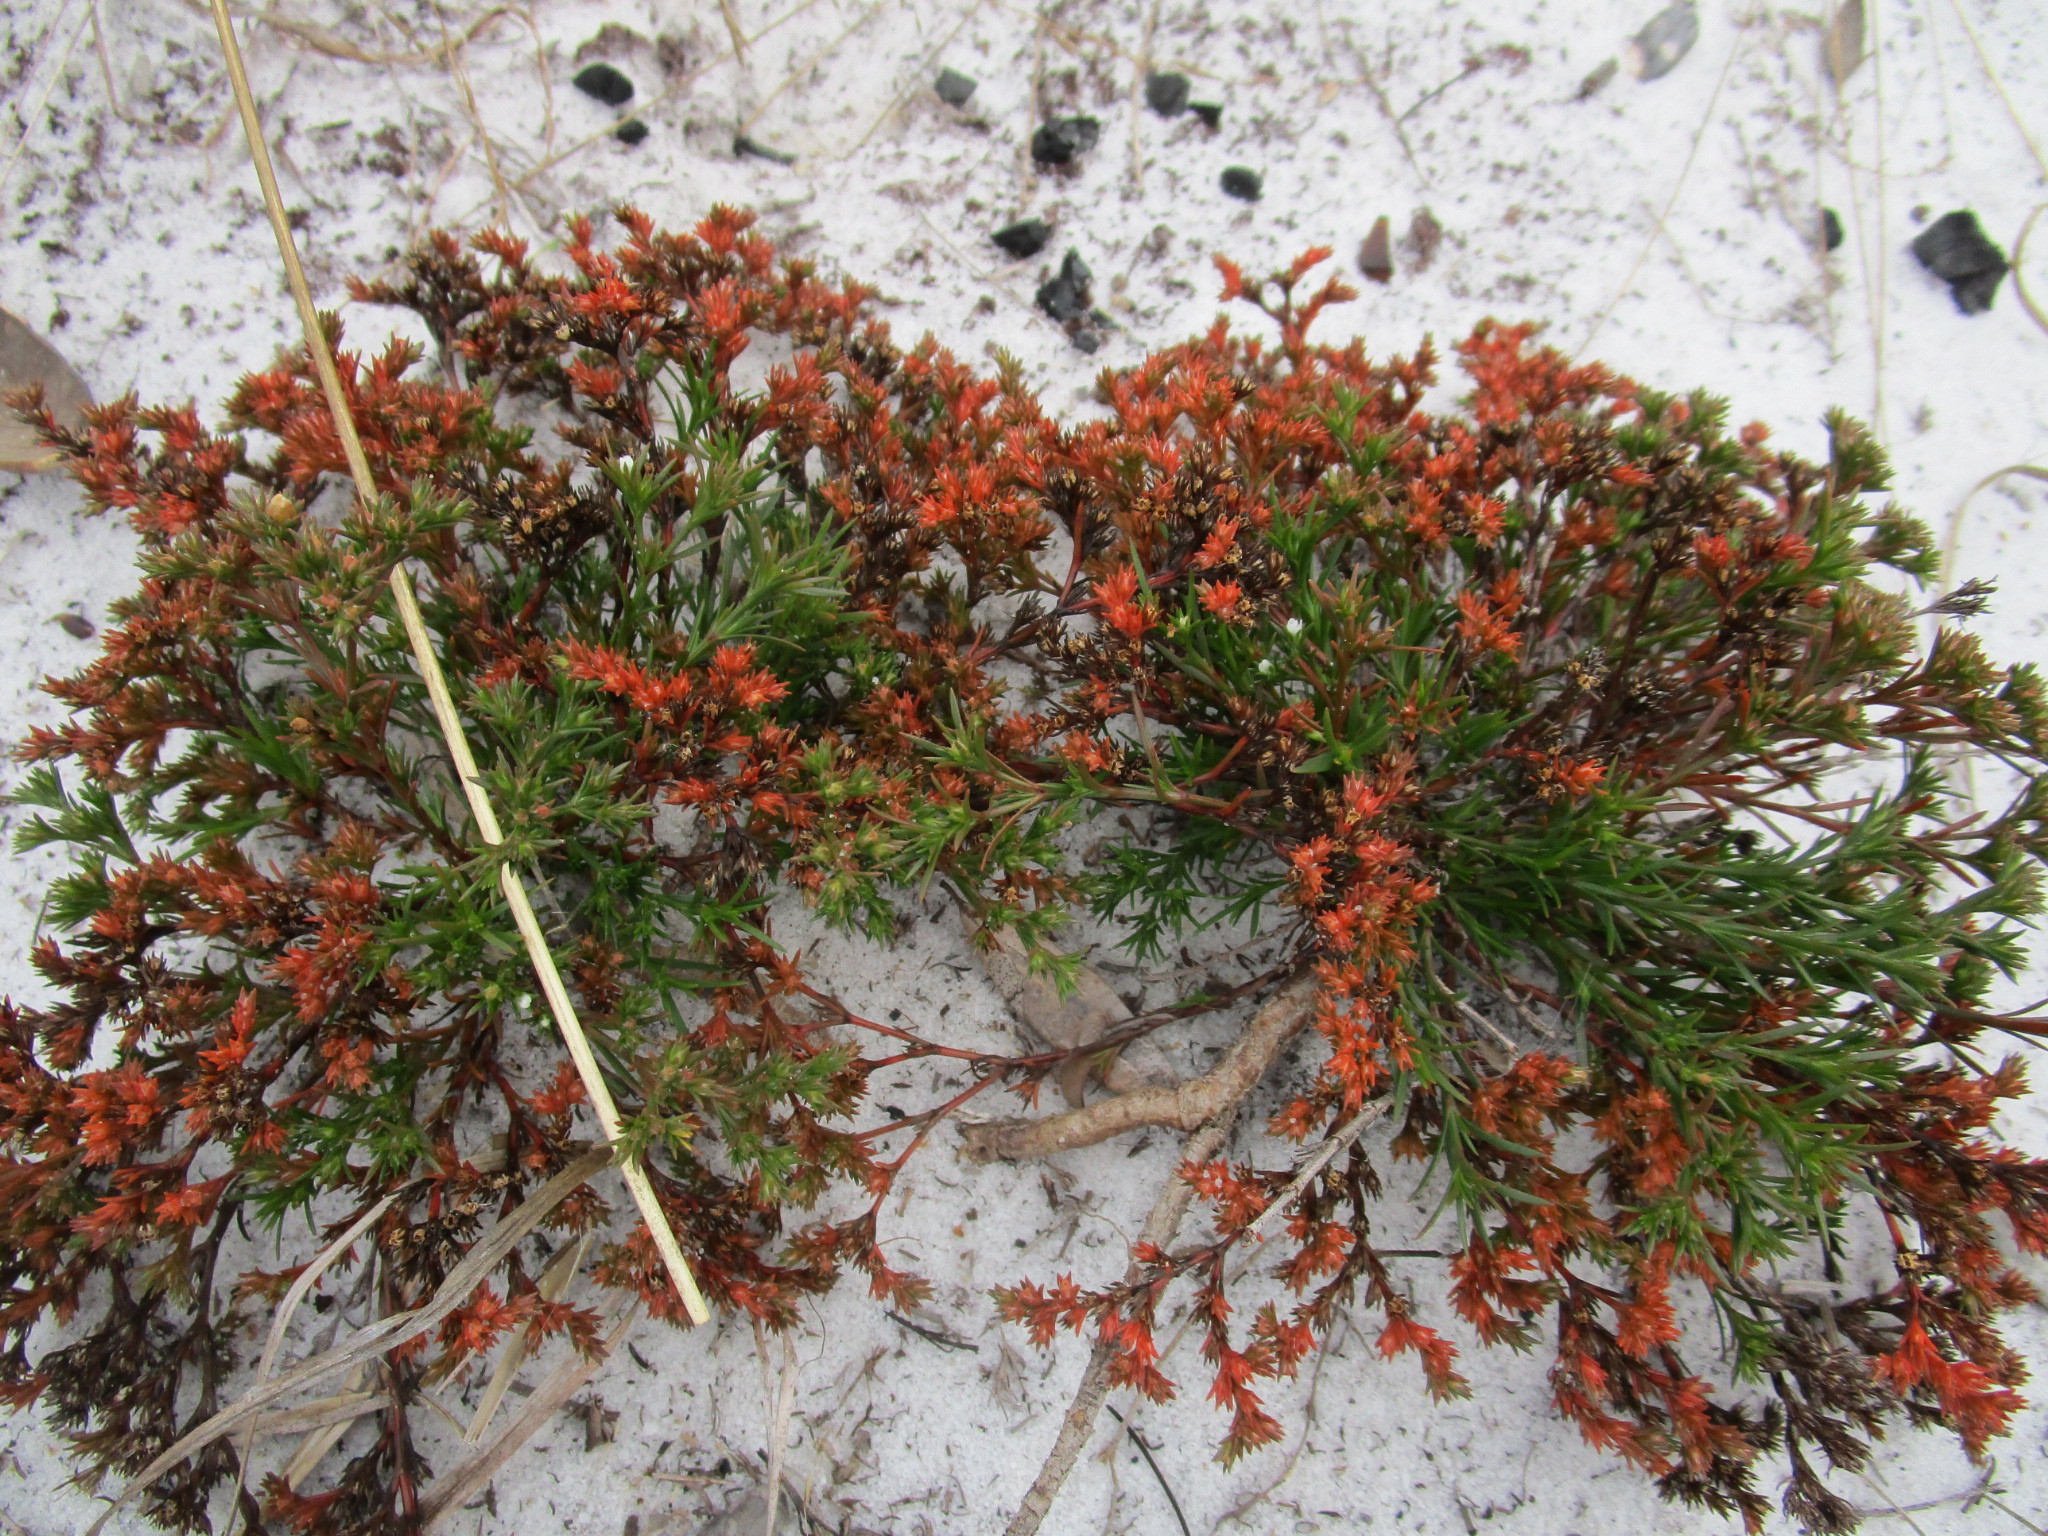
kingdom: Plantae
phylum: Tracheophyta
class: Magnoliopsida
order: Lamiales
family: Tetrachondraceae
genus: Polypremum
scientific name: Polypremum procumbens
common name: Juniper-leaf
